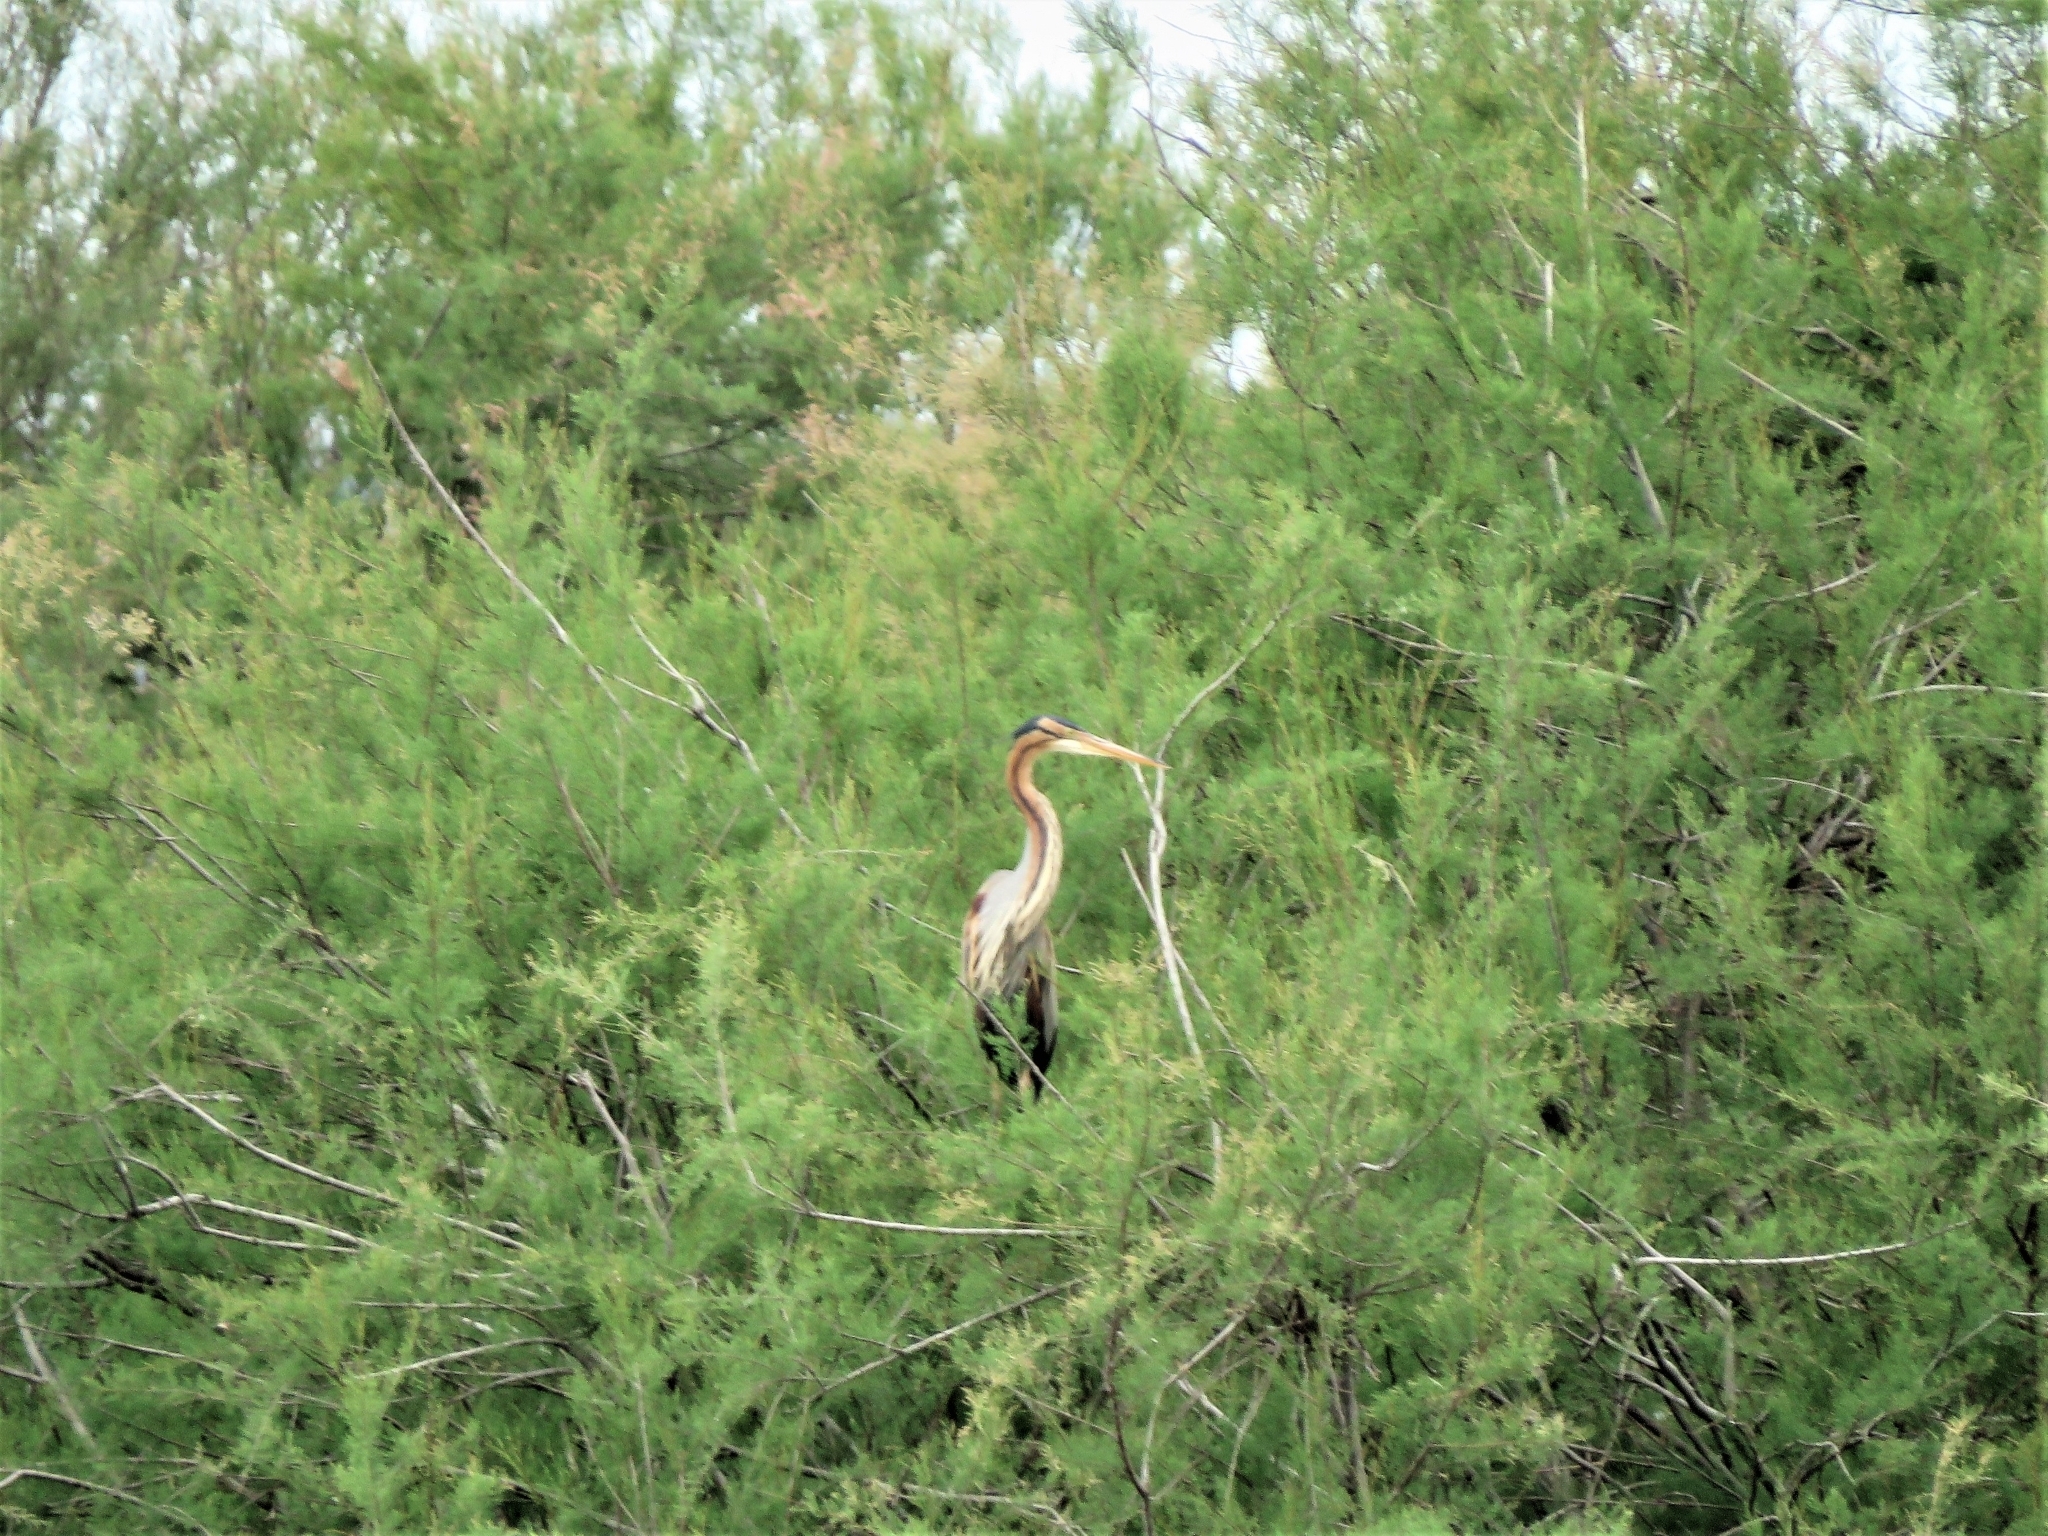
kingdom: Animalia
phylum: Chordata
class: Aves
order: Pelecaniformes
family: Ardeidae
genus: Ardea
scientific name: Ardea purpurea
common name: Purple heron
